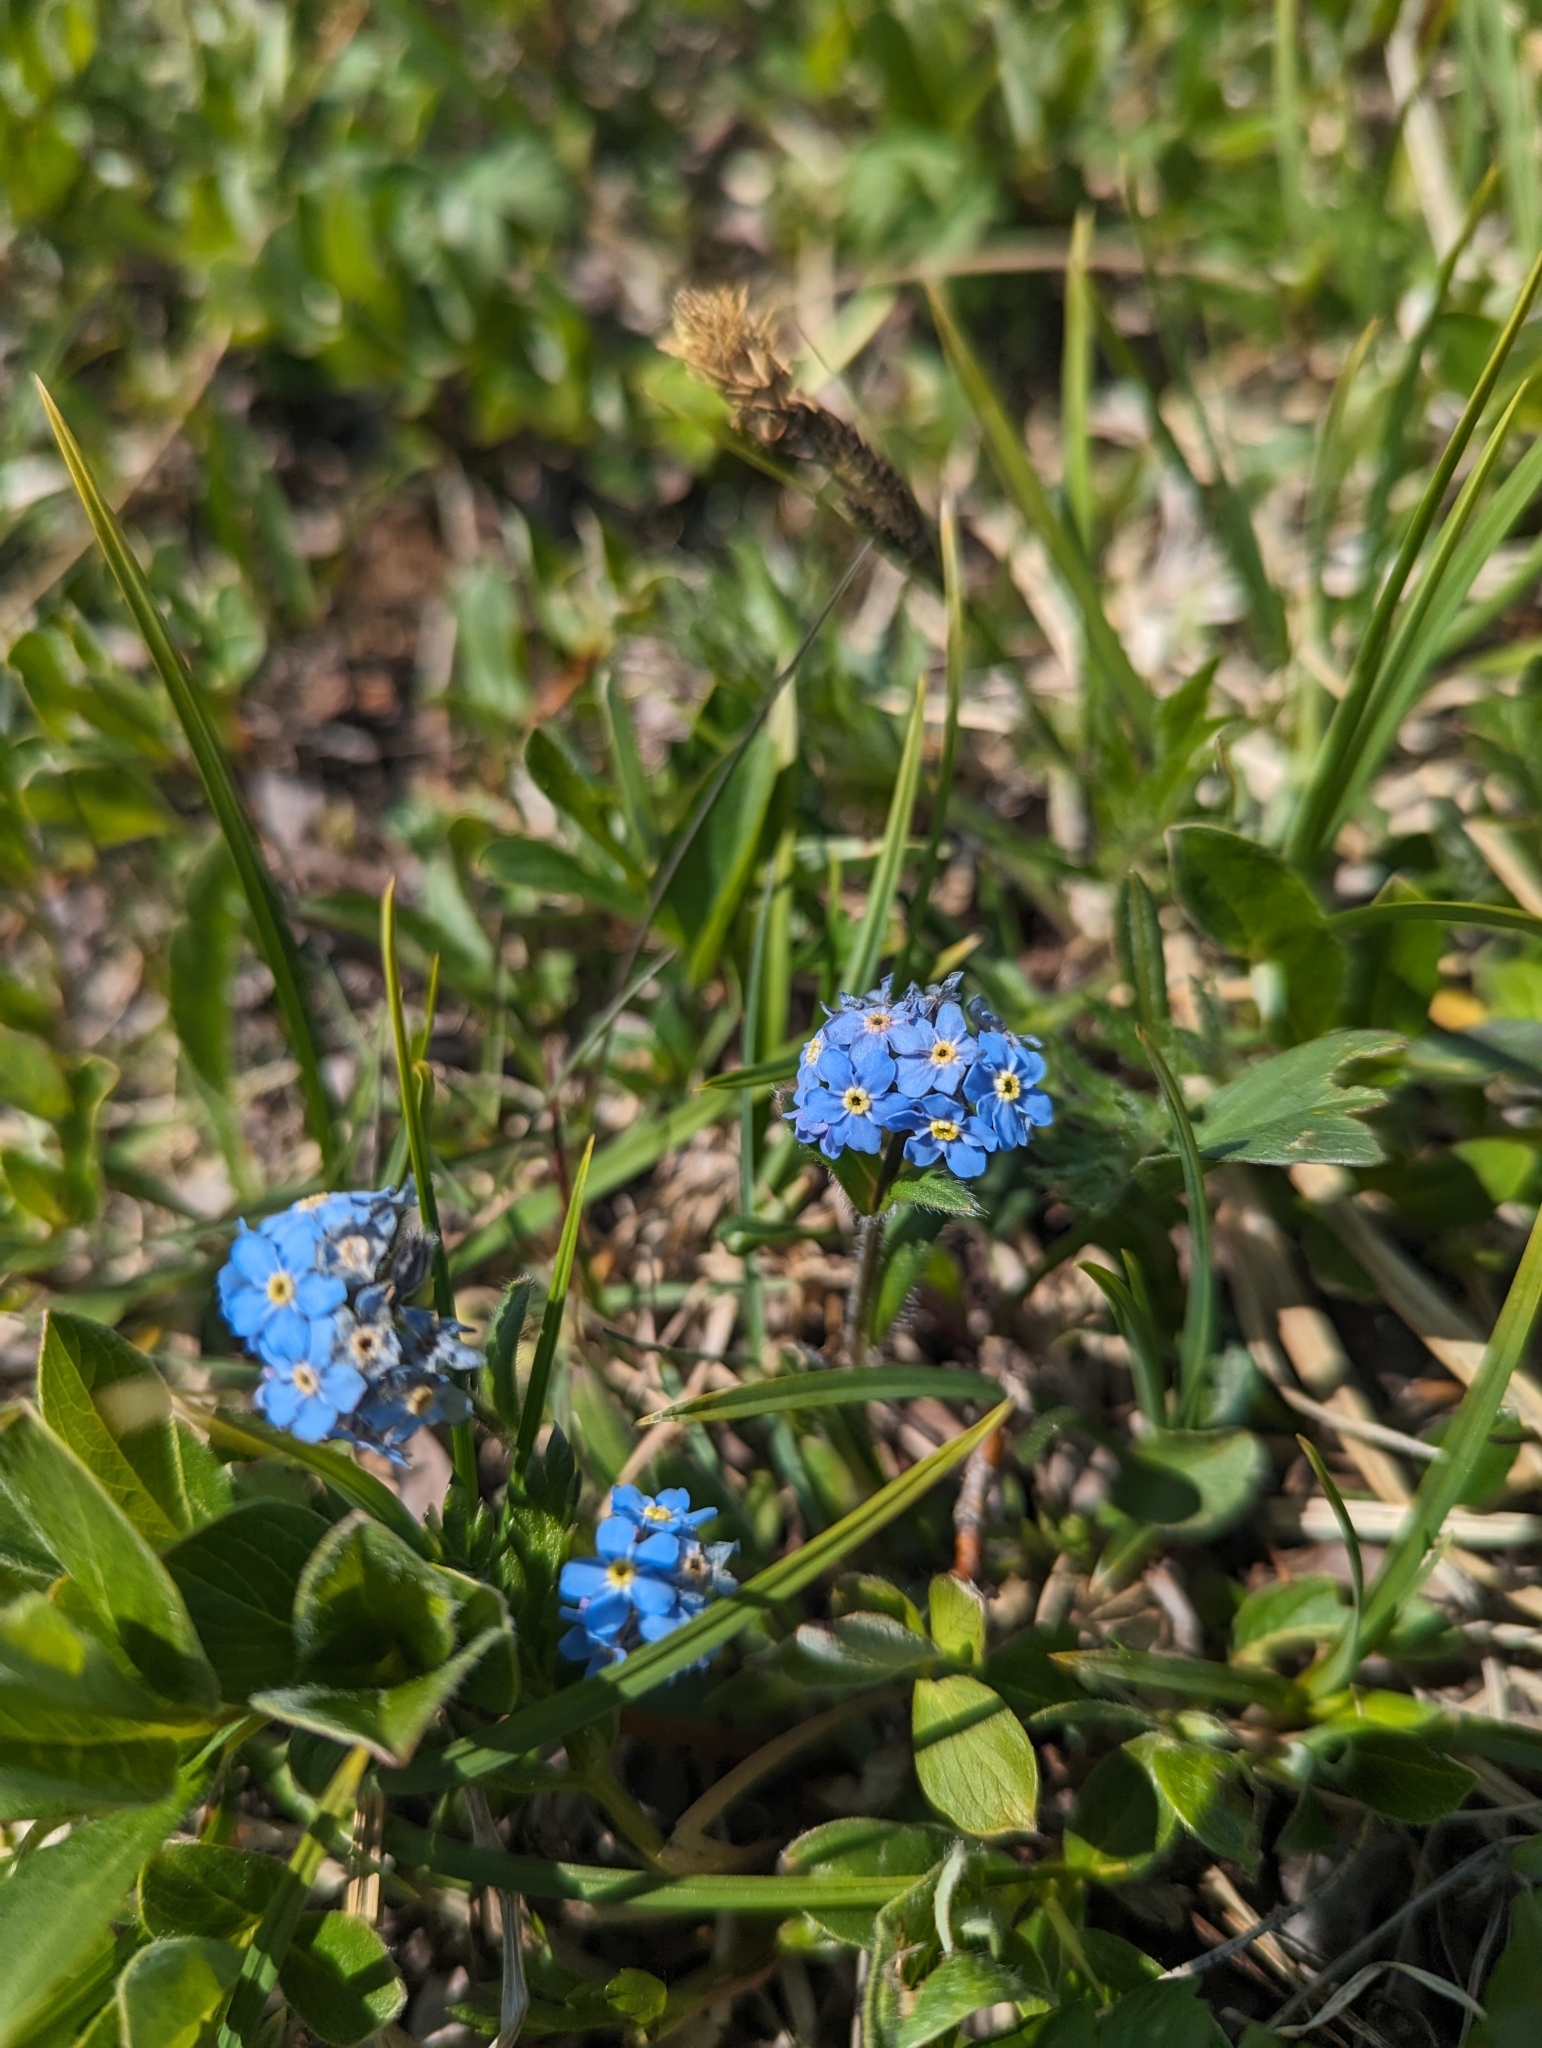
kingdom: Plantae
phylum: Tracheophyta
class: Magnoliopsida
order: Boraginales
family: Boraginaceae
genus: Myosotis
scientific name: Myosotis asiatica
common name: Asian forget-me-not
